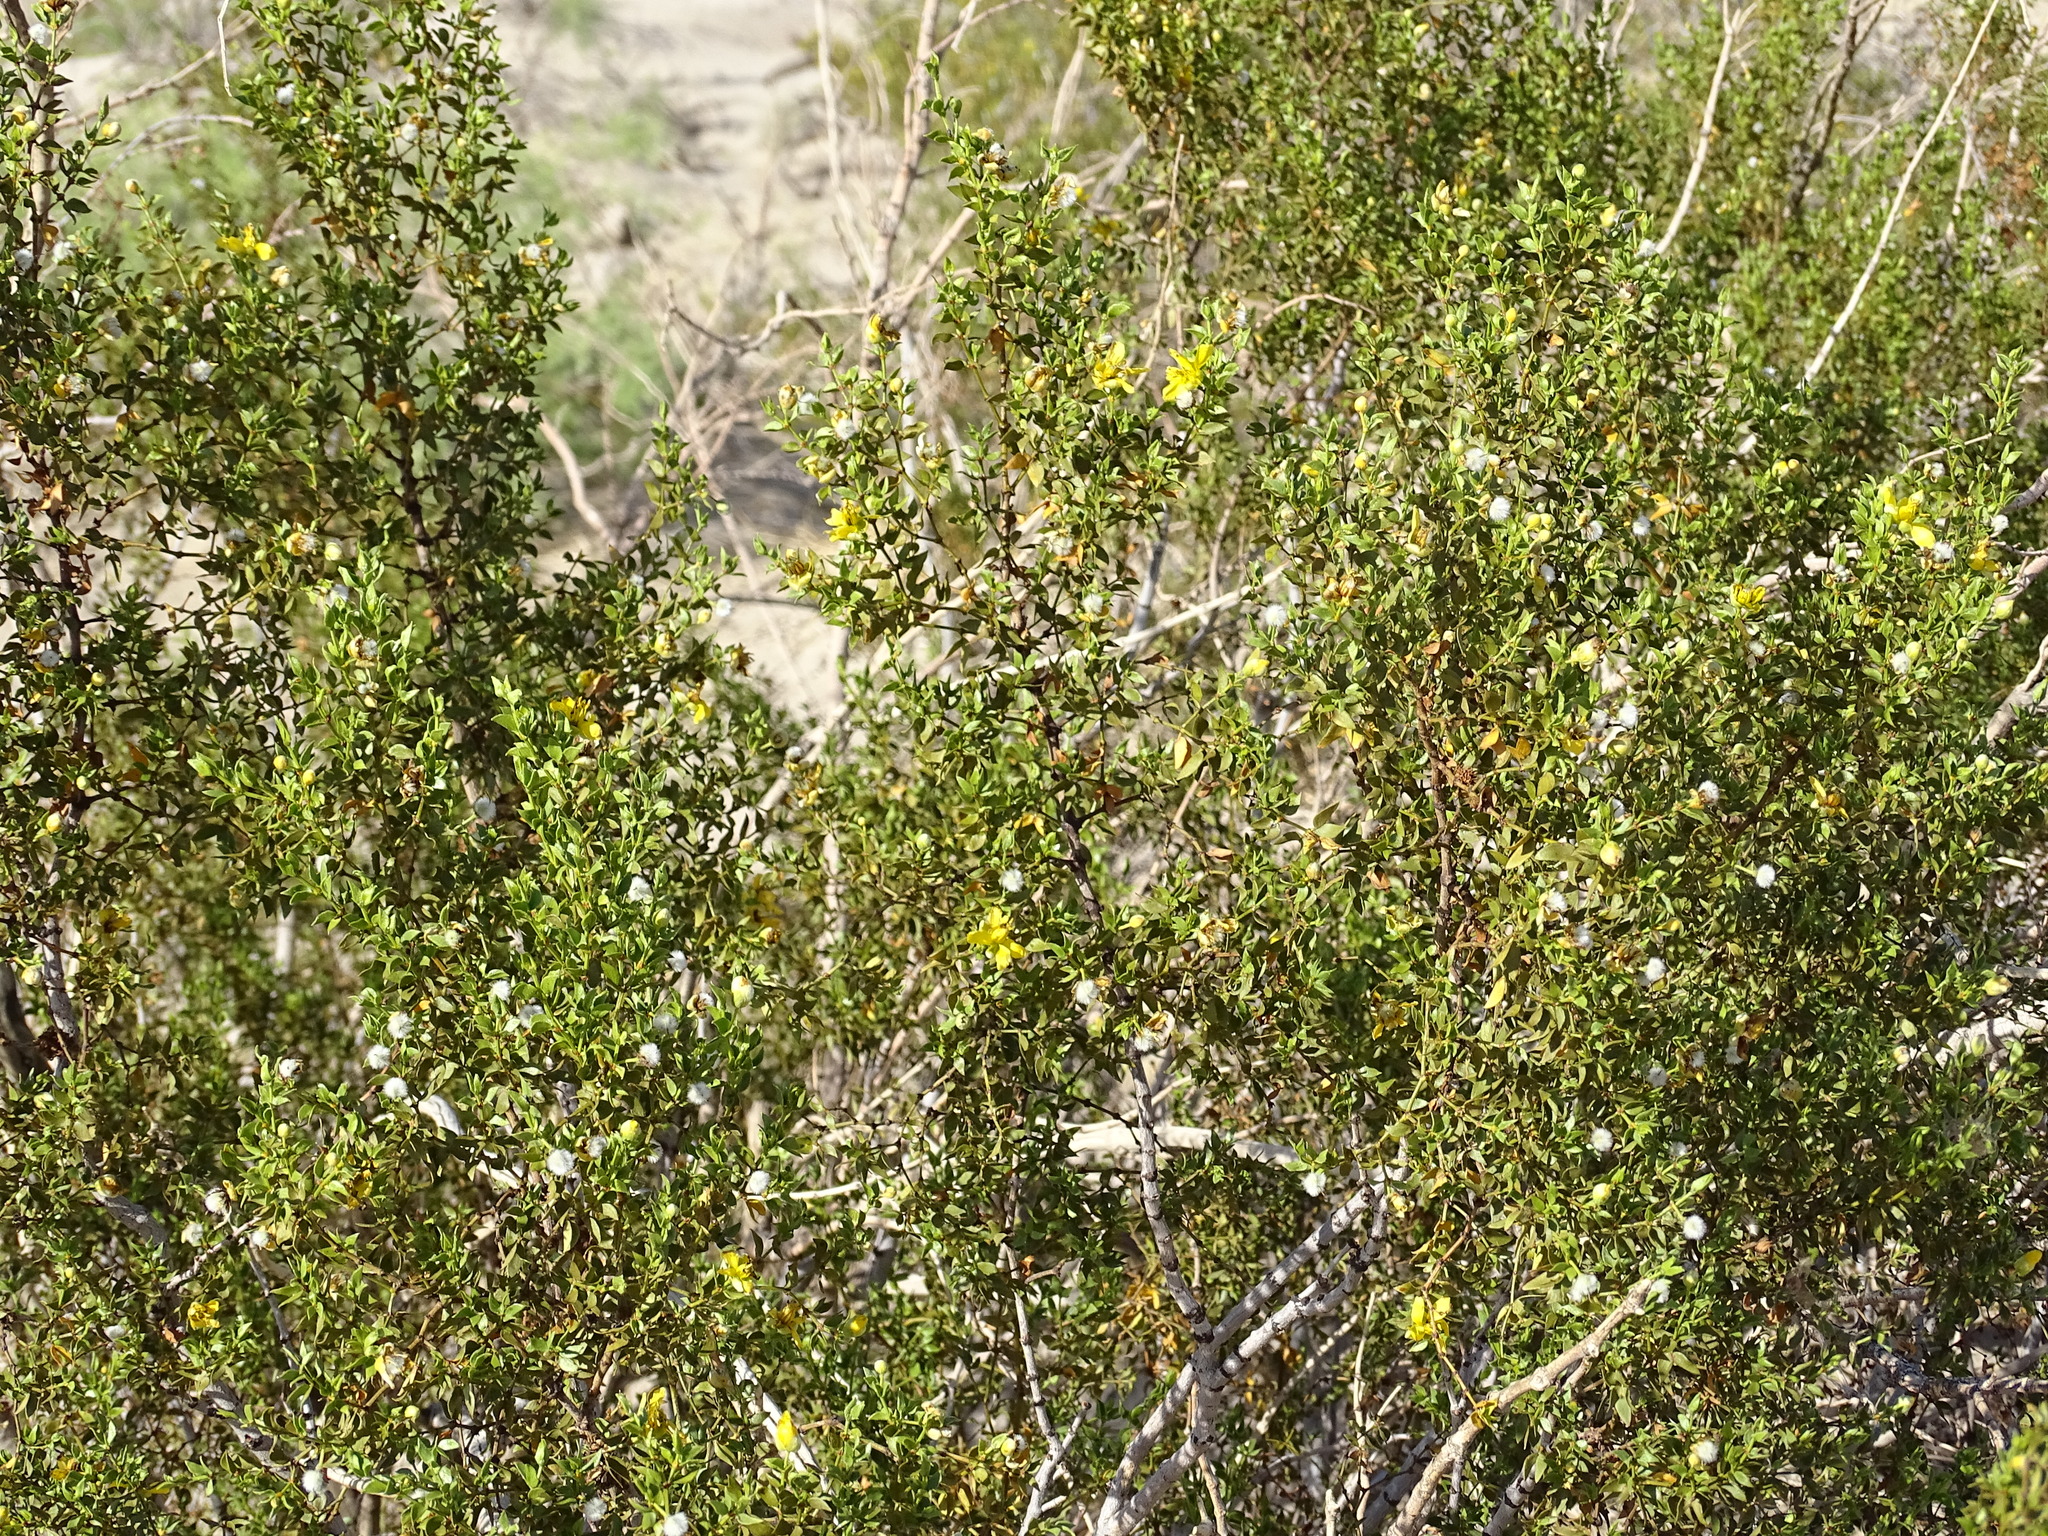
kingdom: Plantae
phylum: Tracheophyta
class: Magnoliopsida
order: Zygophyllales
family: Zygophyllaceae
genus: Larrea
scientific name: Larrea tridentata
